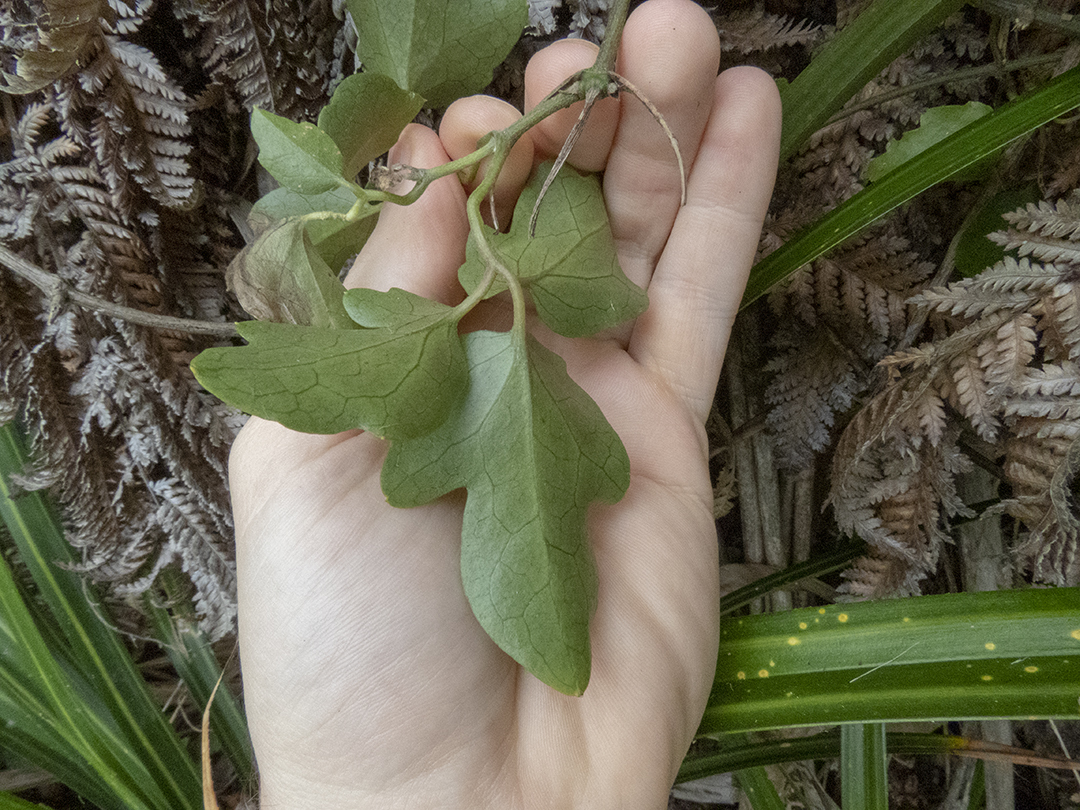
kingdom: Plantae
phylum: Tracheophyta
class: Magnoliopsida
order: Ranunculales
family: Ranunculaceae
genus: Clematis
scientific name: Clematis paniculata
